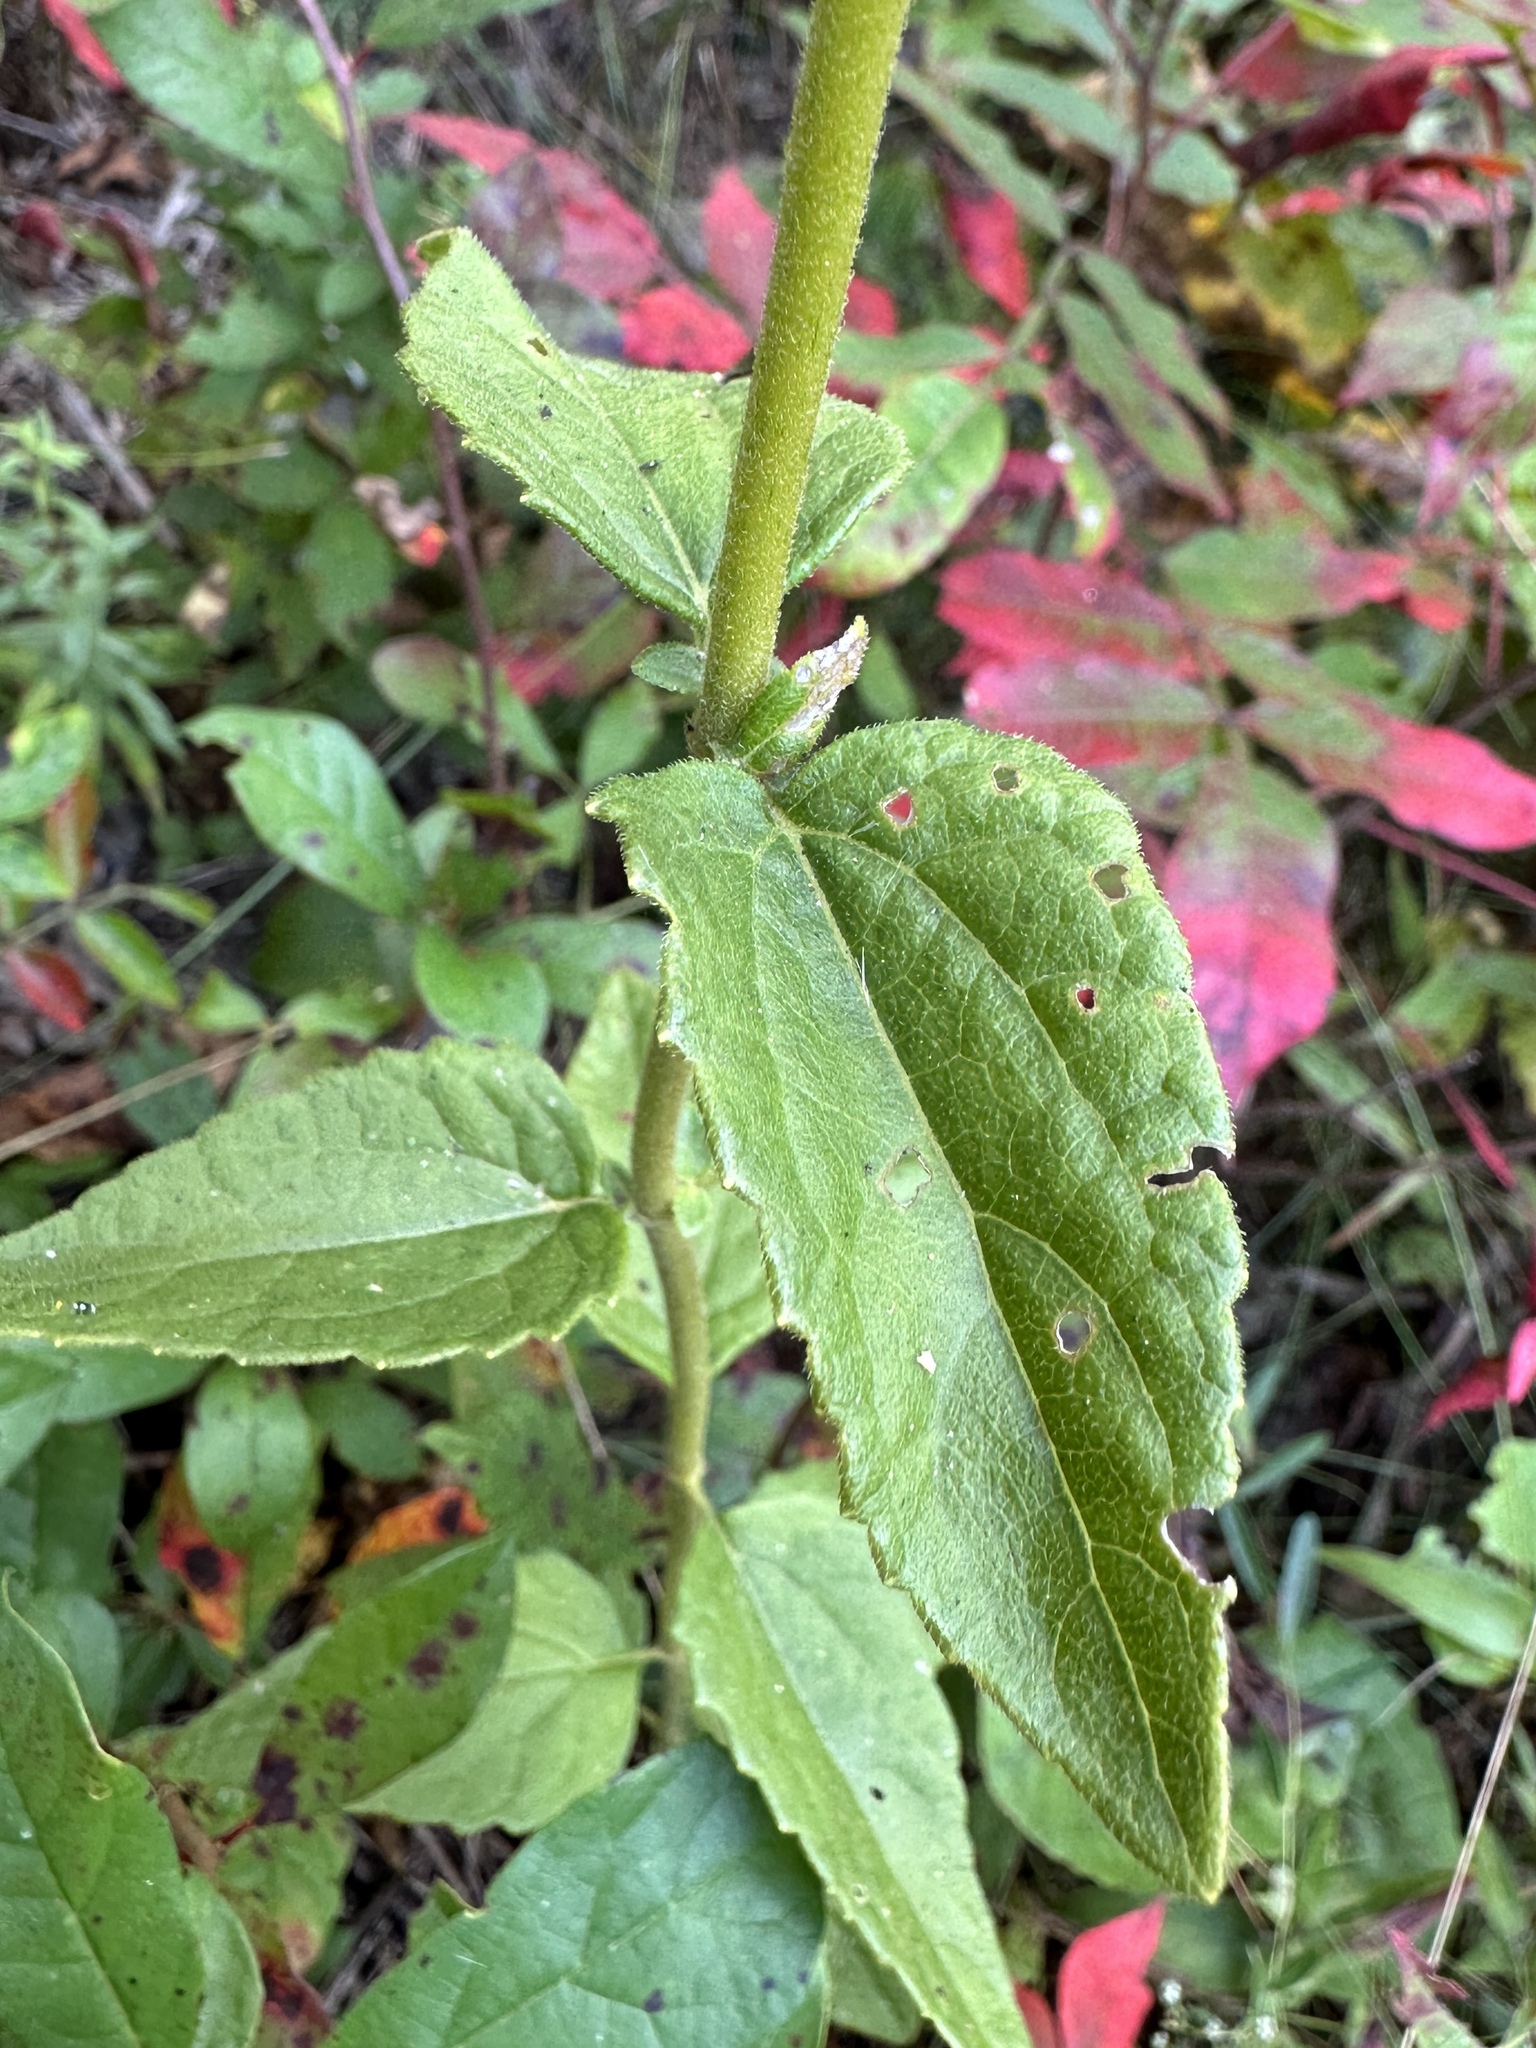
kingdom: Plantae
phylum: Tracheophyta
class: Magnoliopsida
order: Asterales
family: Asteraceae
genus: Ageratina
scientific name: Ageratina aromatica
